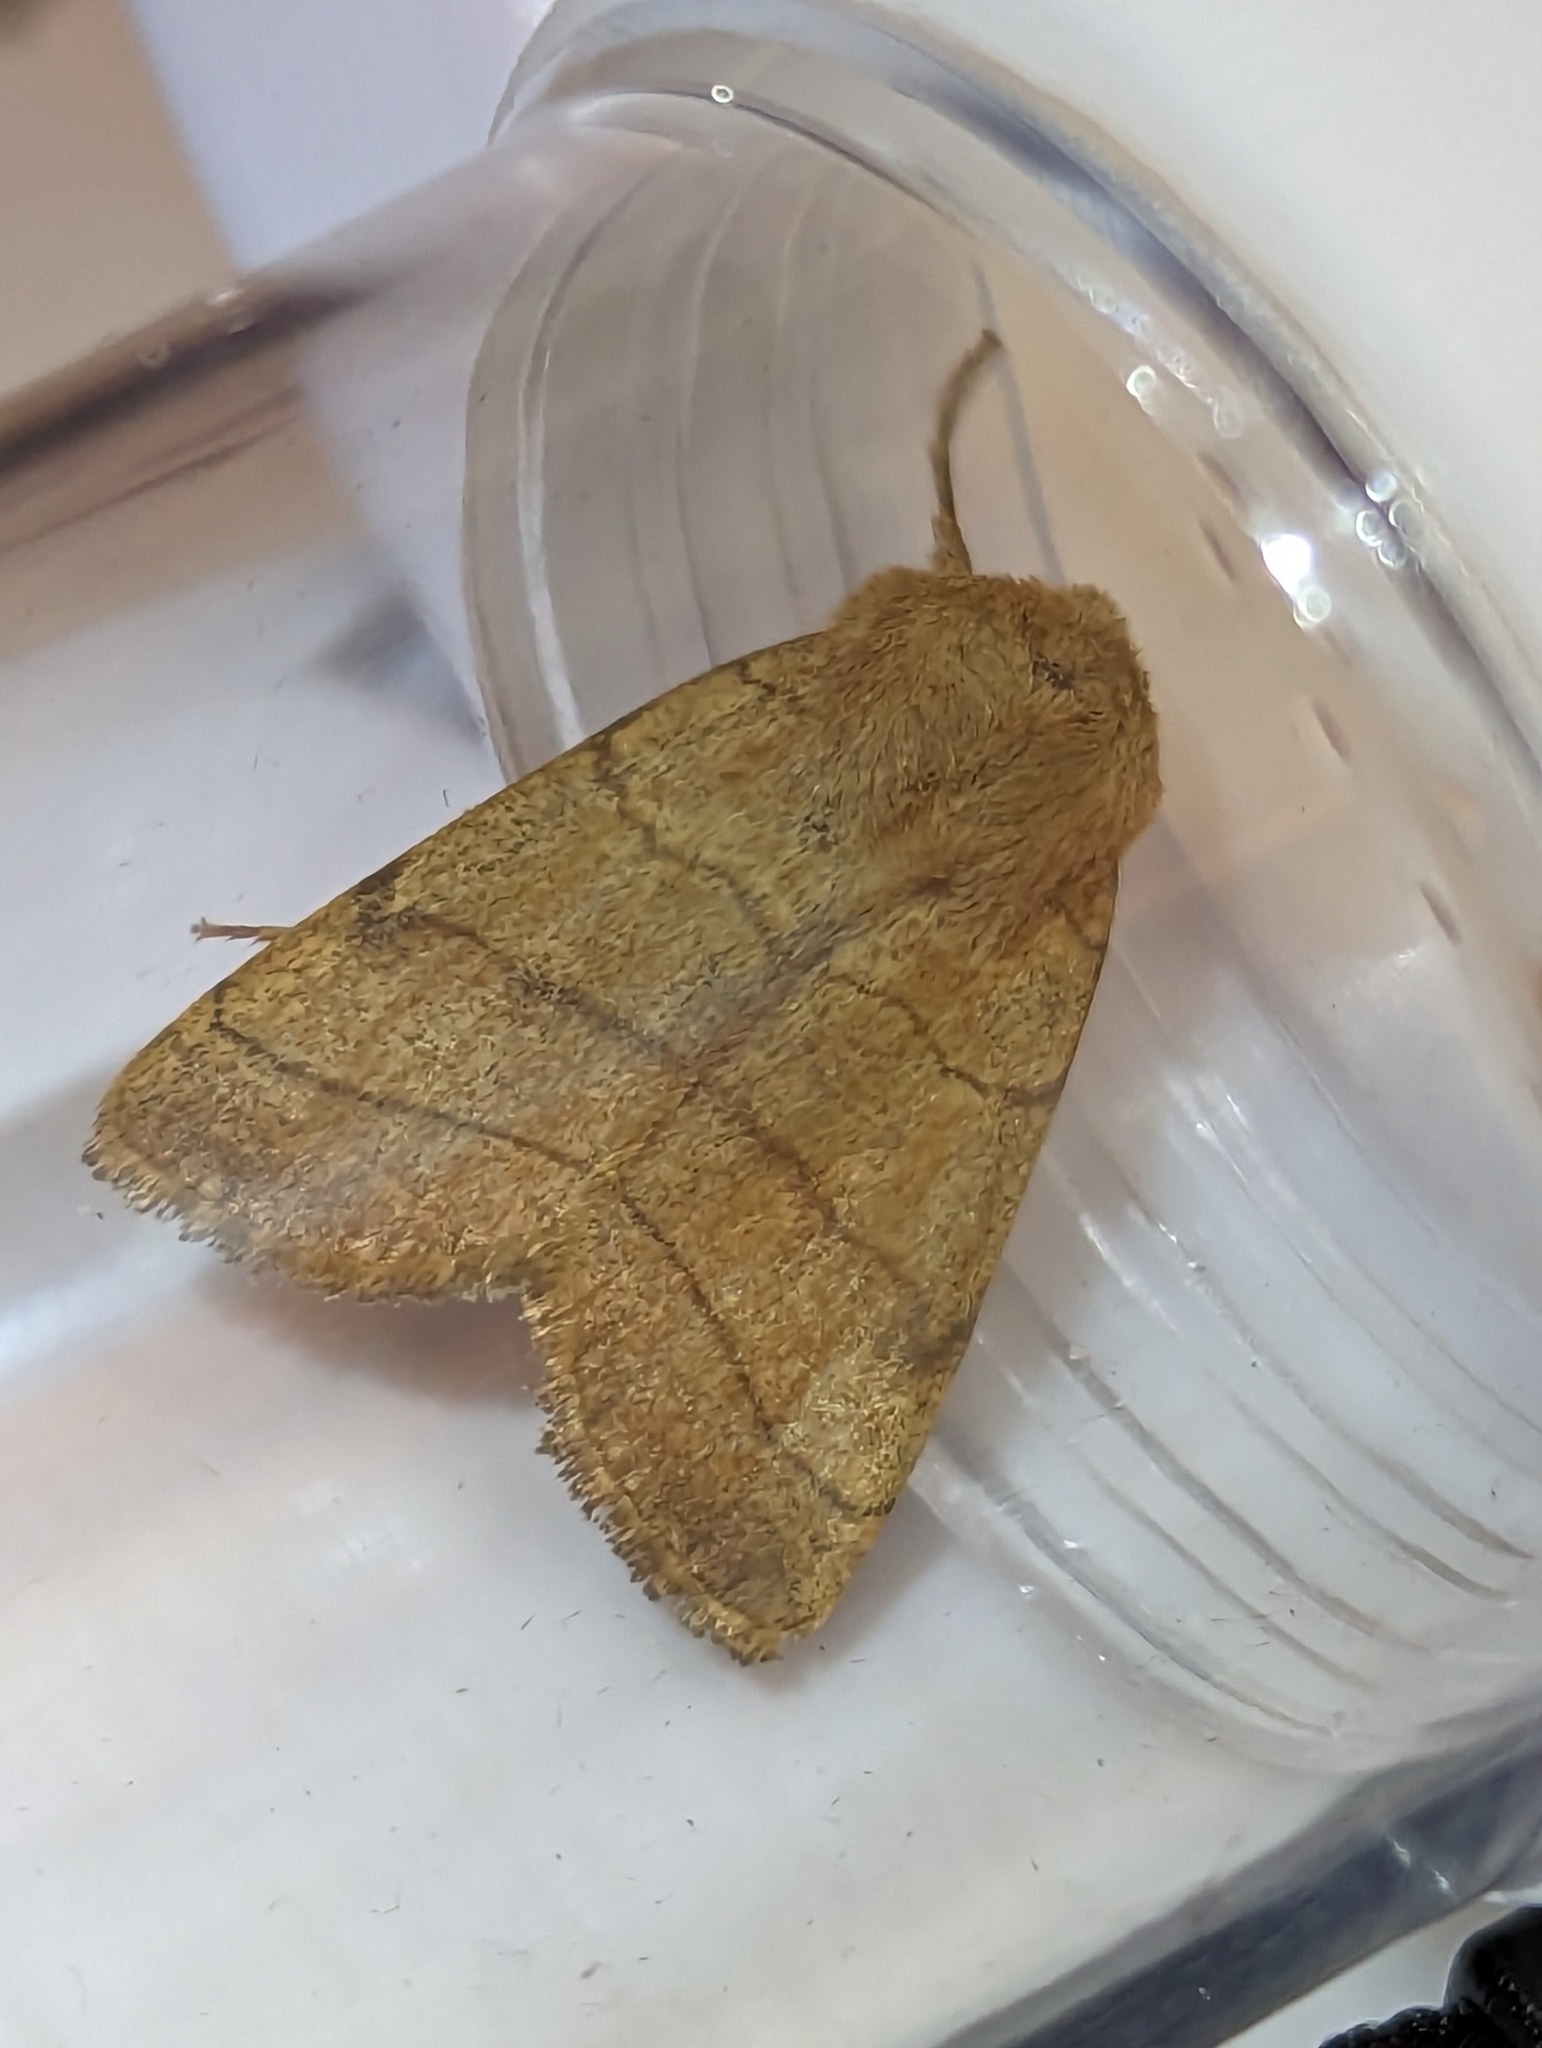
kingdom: Animalia
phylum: Arthropoda
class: Insecta
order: Lepidoptera
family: Noctuidae
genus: Charanyca
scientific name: Charanyca trigrammica
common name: Treble lines
